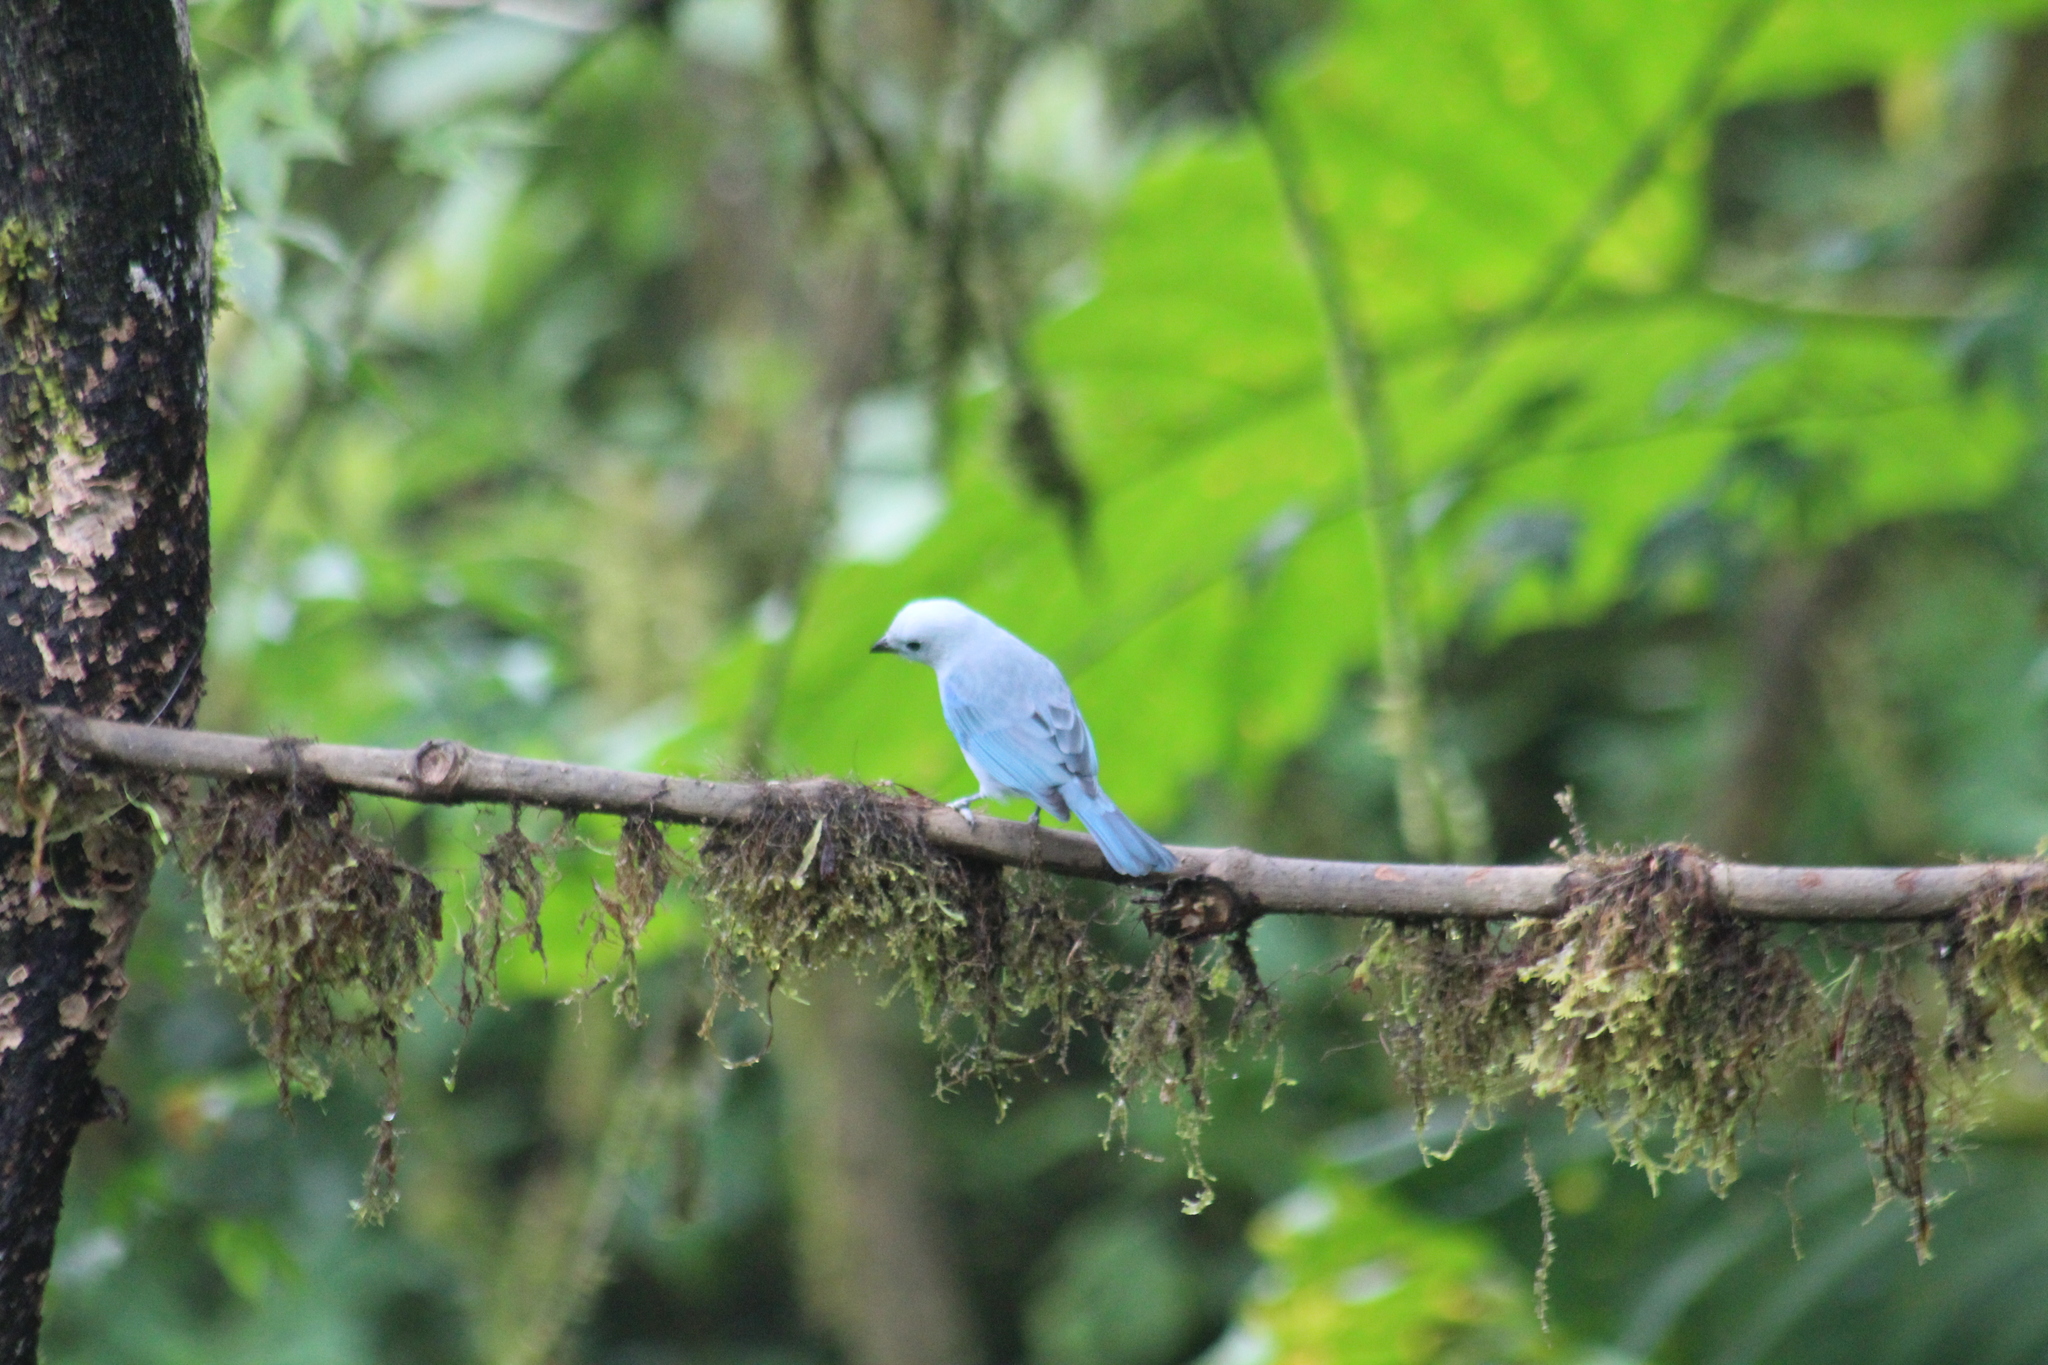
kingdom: Animalia
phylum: Chordata
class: Aves
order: Passeriformes
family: Thraupidae
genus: Thraupis
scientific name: Thraupis episcopus
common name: Blue-grey tanager
